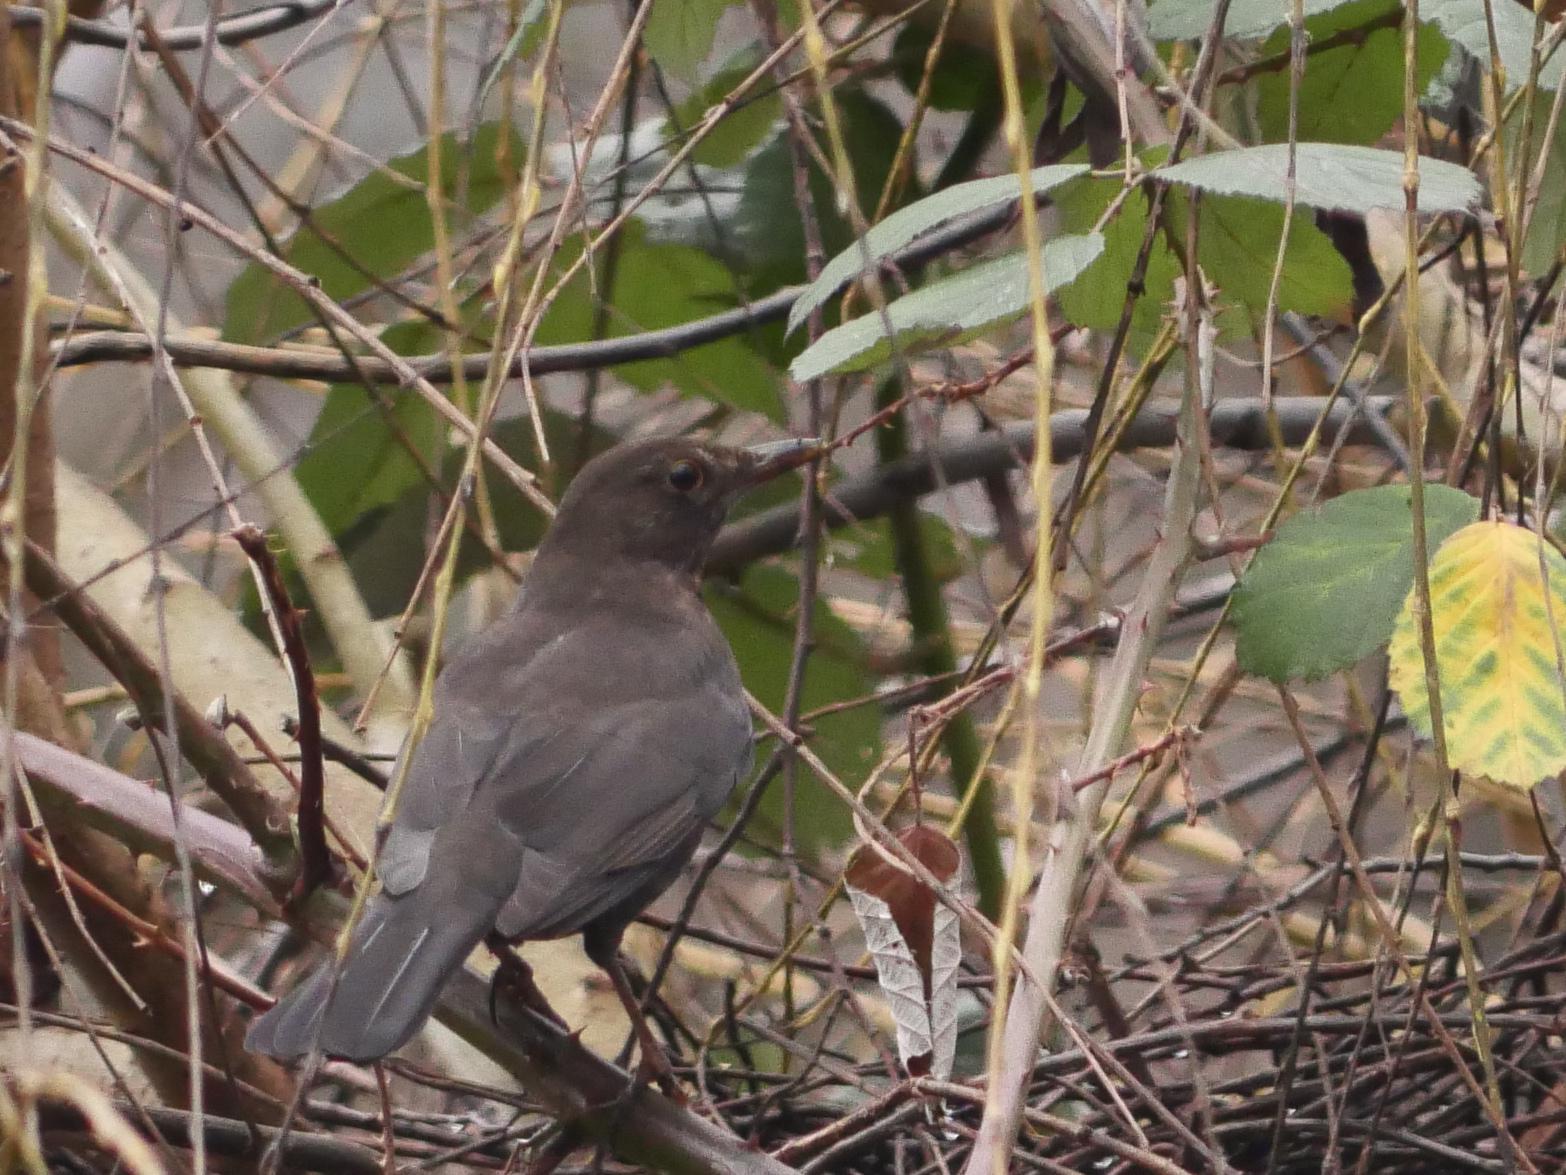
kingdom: Animalia
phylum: Chordata
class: Aves
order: Passeriformes
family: Turdidae
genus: Turdus
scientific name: Turdus merula
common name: Common blackbird
